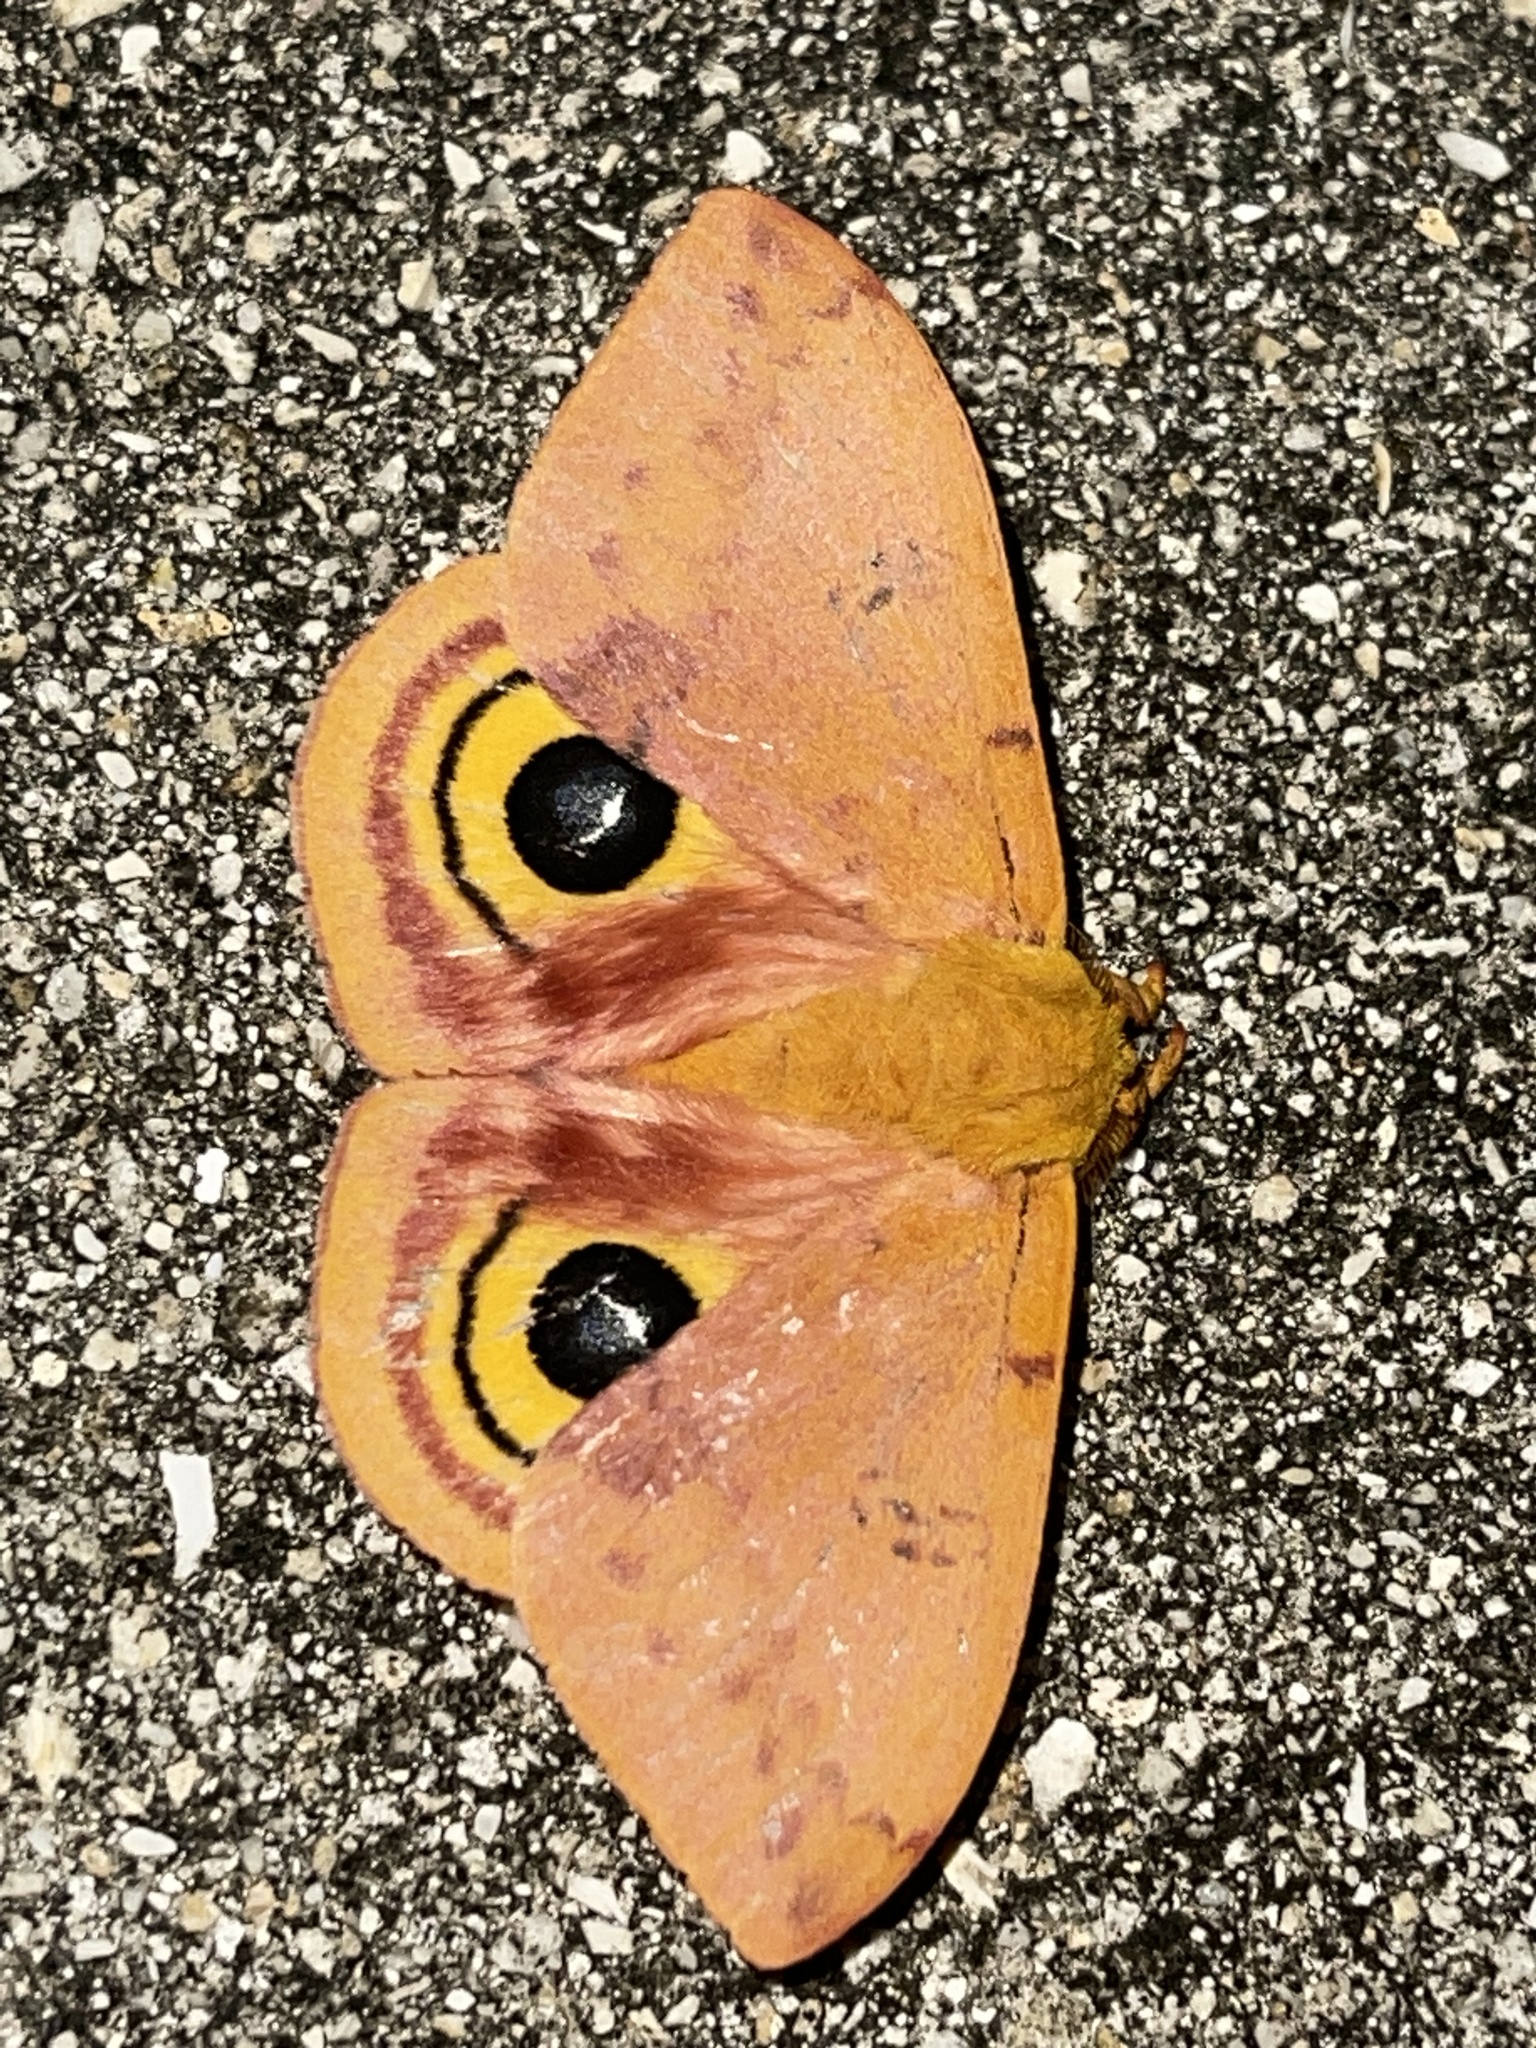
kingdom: Animalia
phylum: Arthropoda
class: Insecta
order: Lepidoptera
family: Saturniidae
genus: Automeris
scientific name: Automeris io
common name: Io moth
